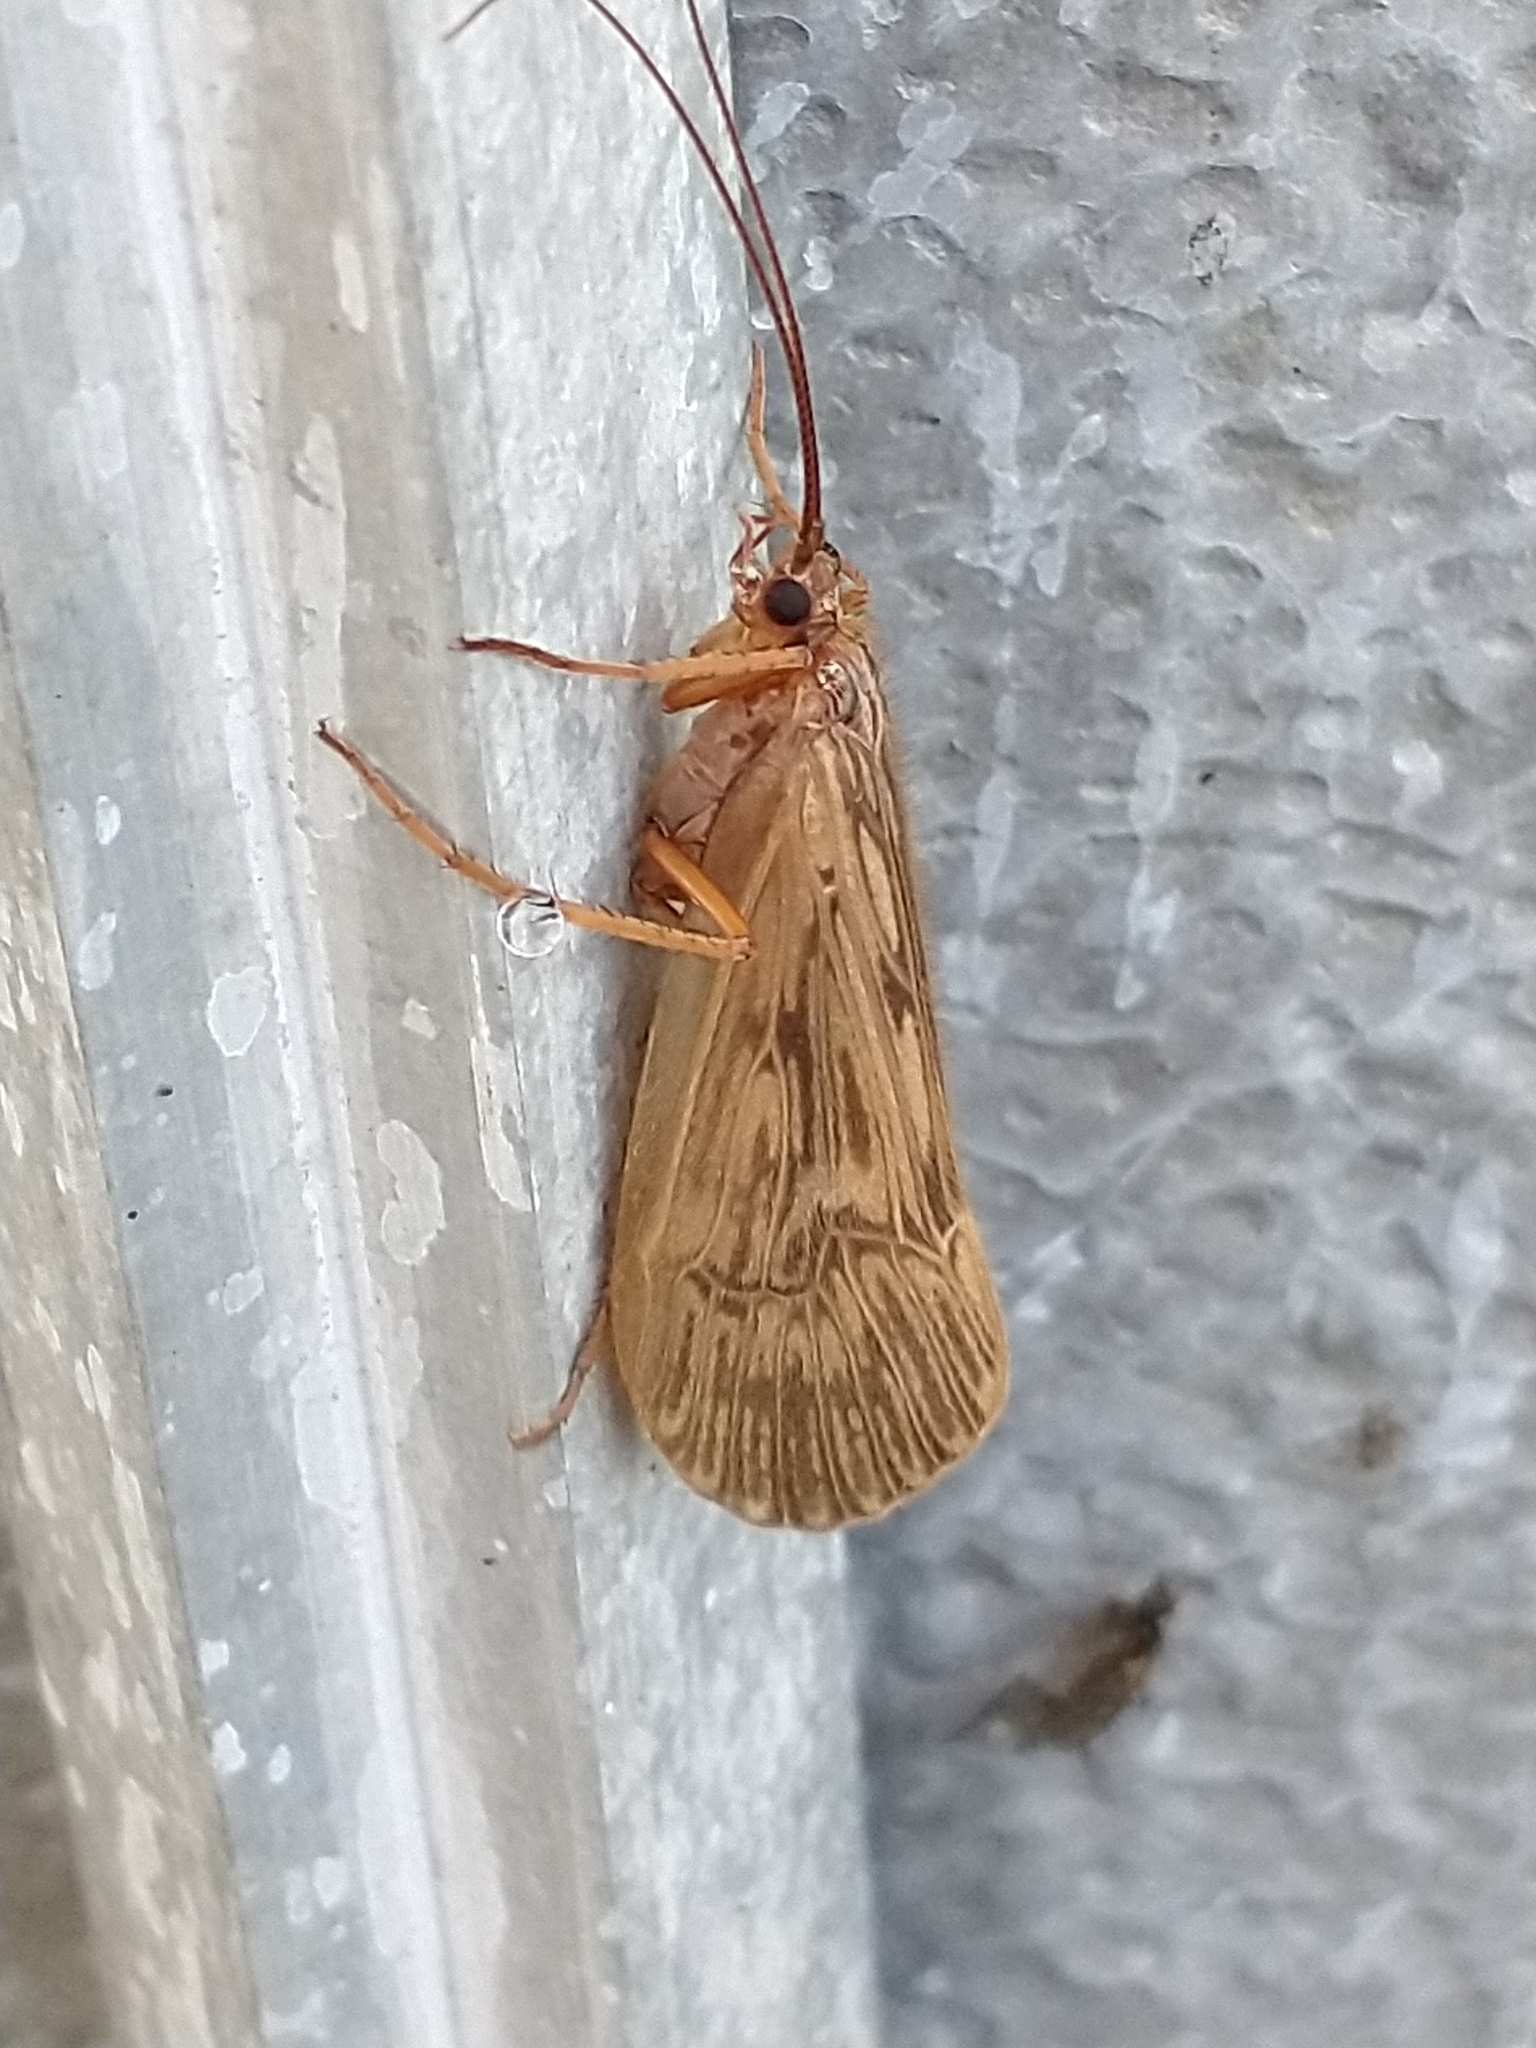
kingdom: Animalia
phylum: Arthropoda
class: Insecta
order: Trichoptera
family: Limnephilidae
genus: Halesus
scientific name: Halesus radiatus
